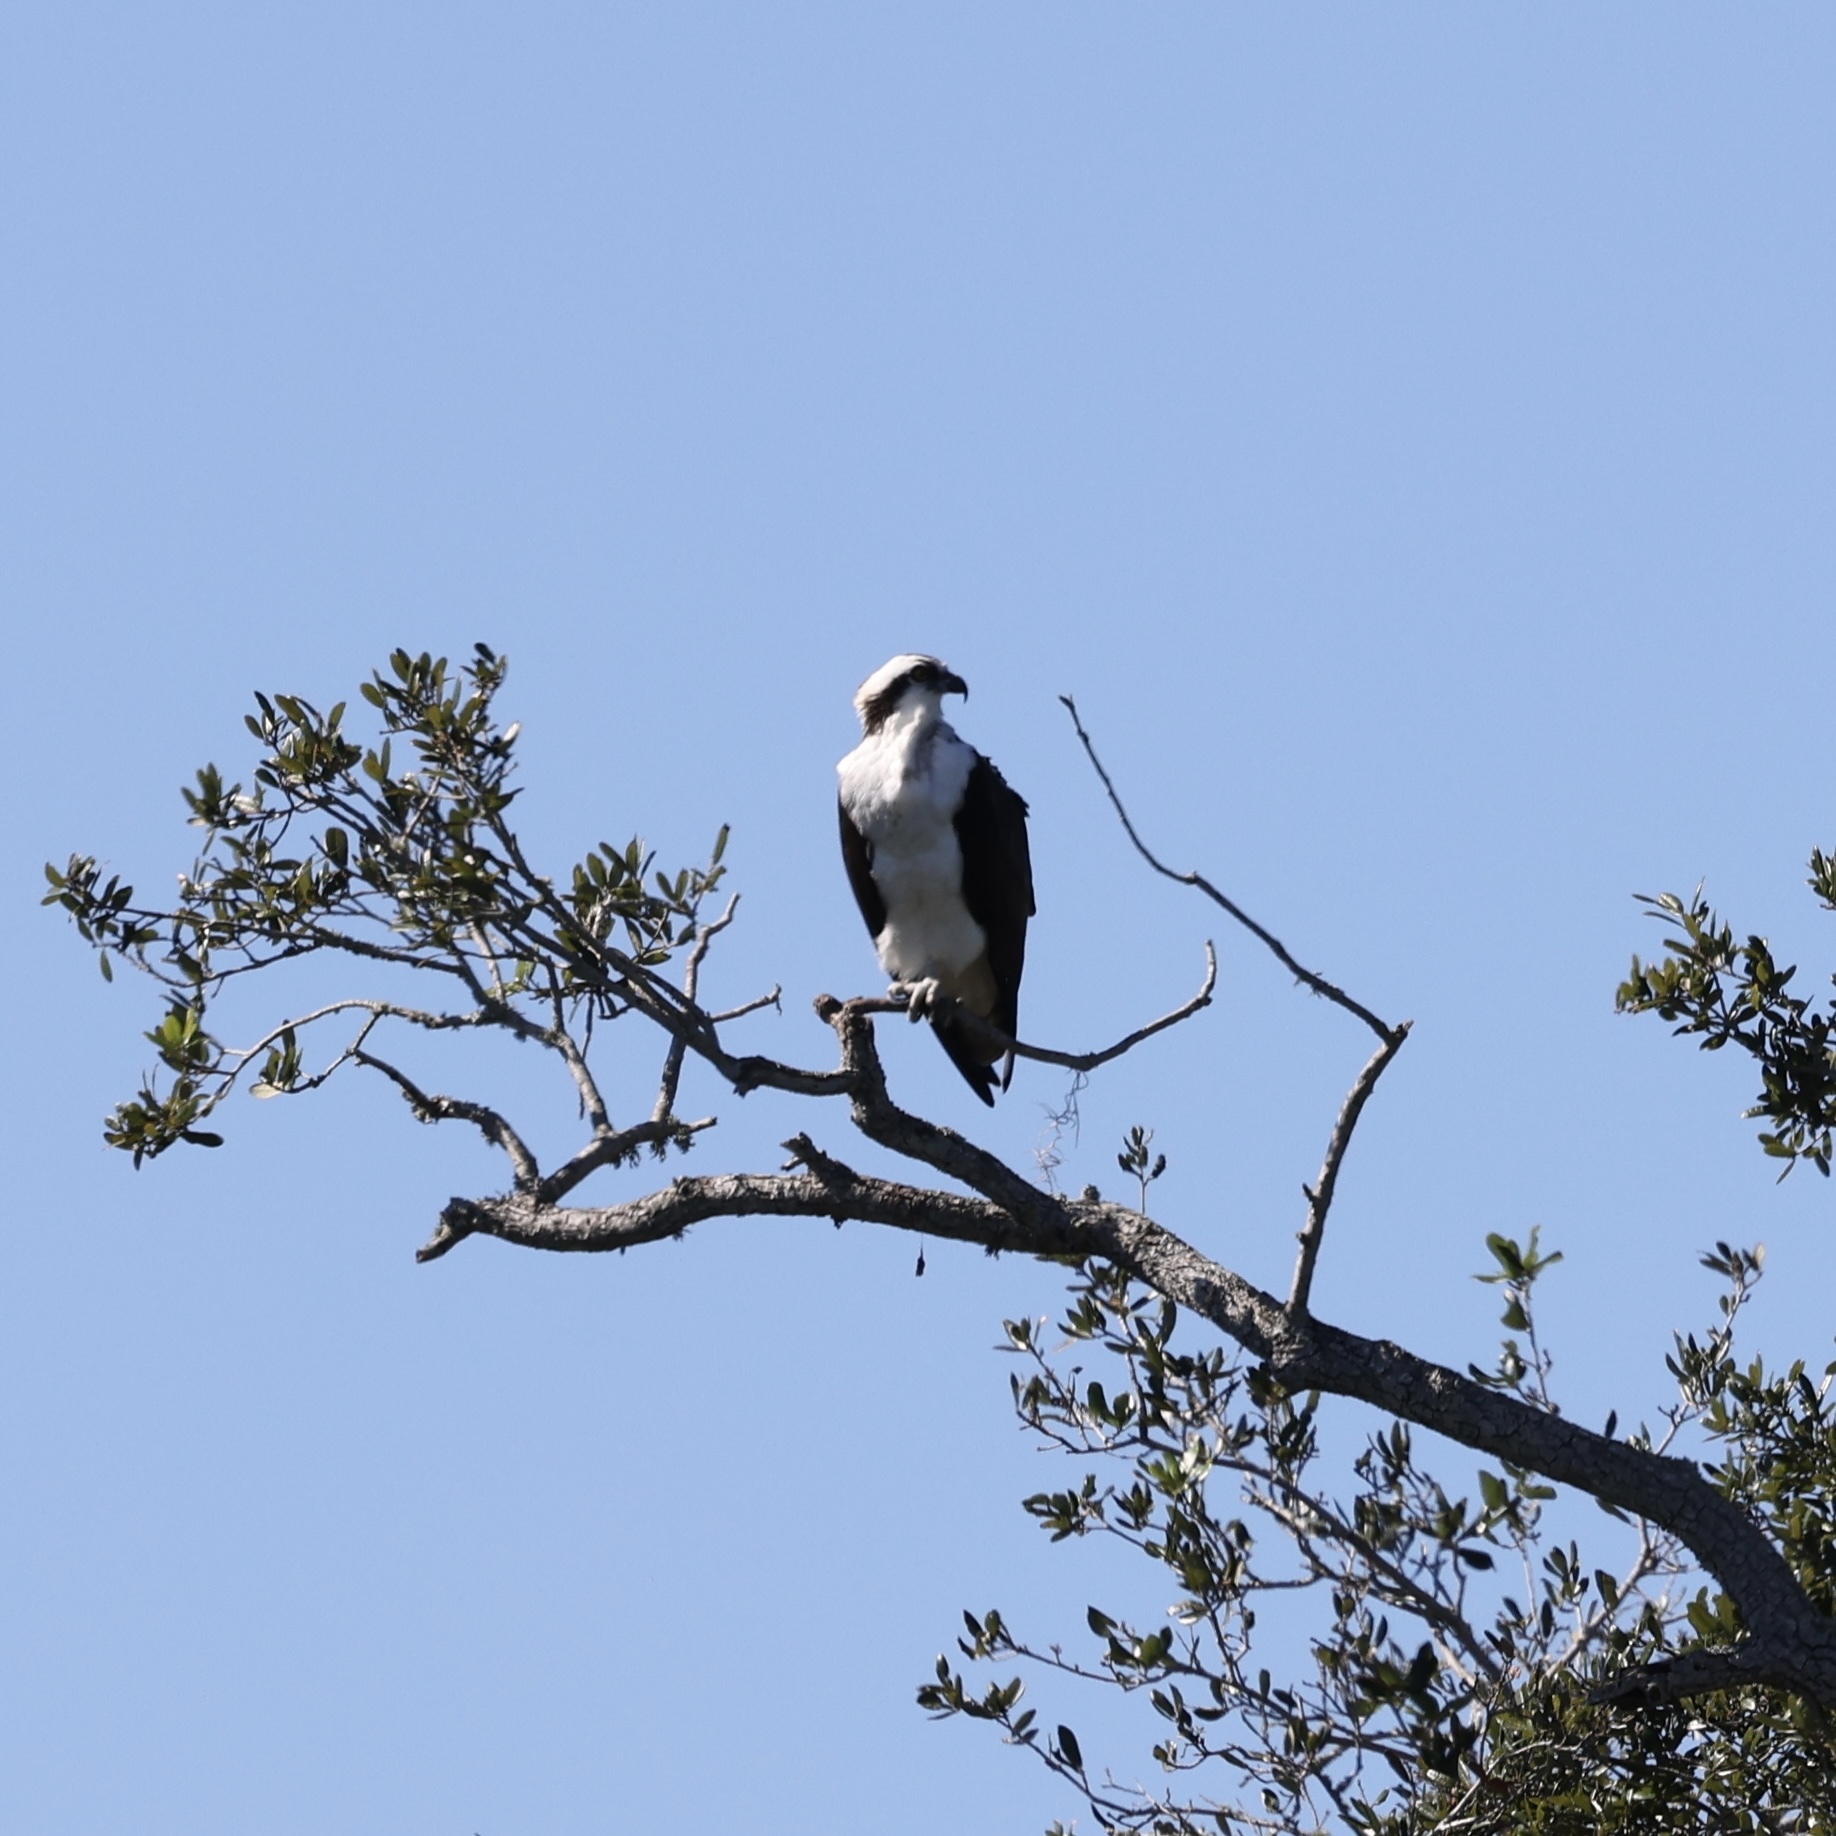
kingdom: Animalia
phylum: Chordata
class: Aves
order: Accipitriformes
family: Pandionidae
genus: Pandion
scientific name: Pandion haliaetus
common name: Osprey
